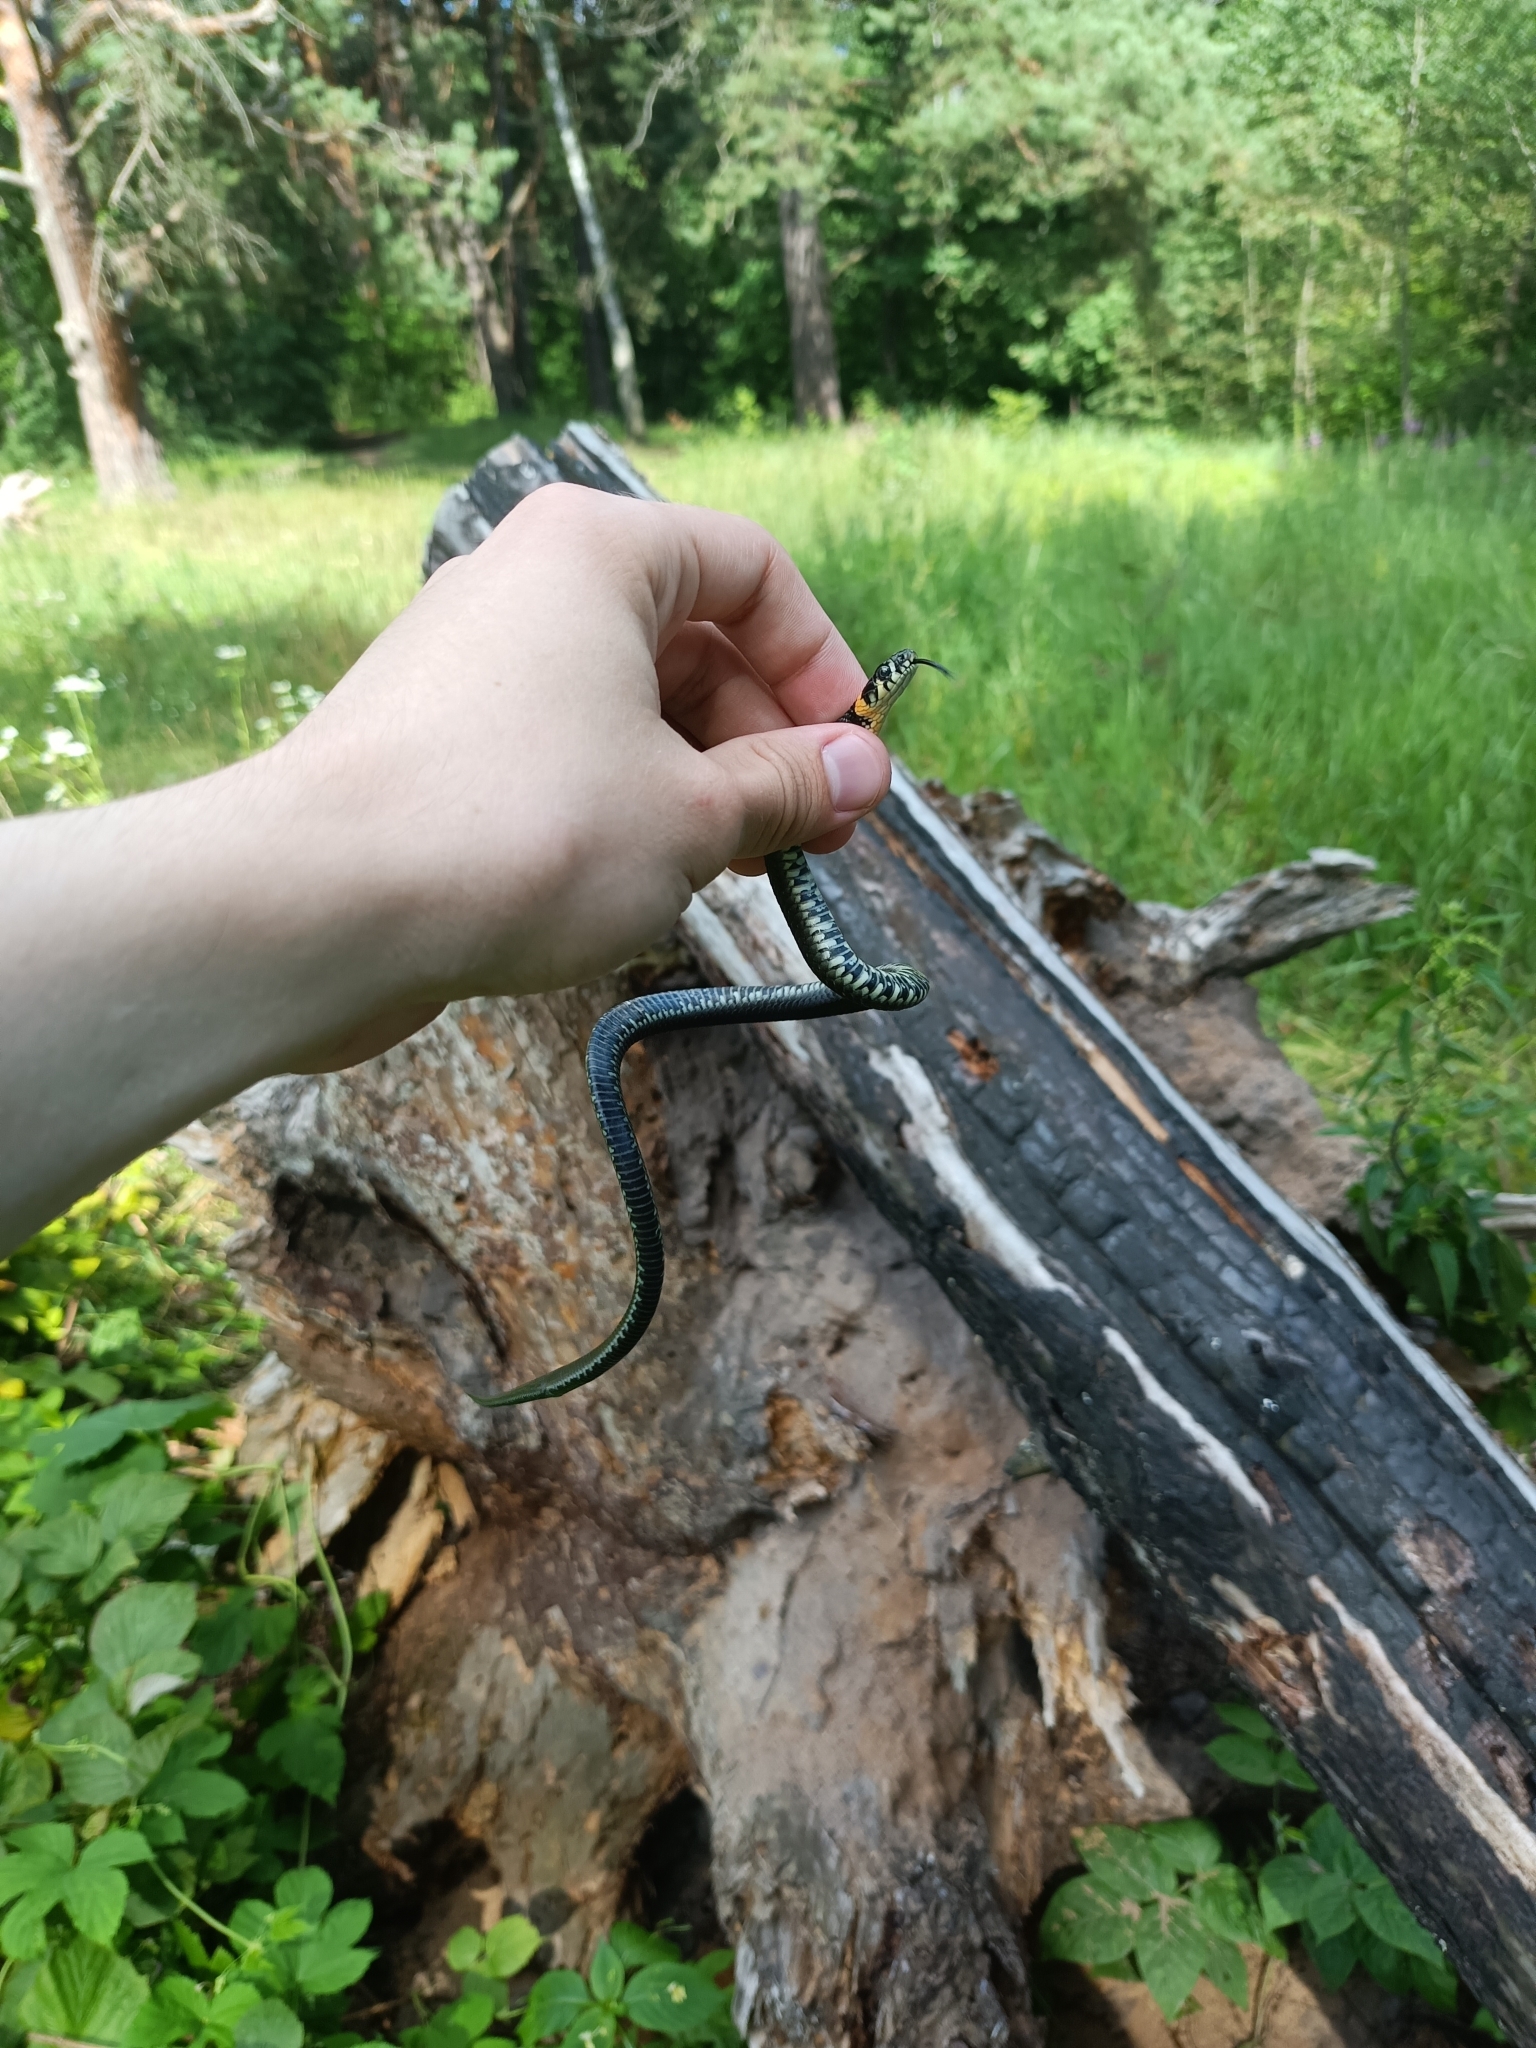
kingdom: Animalia
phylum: Chordata
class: Squamata
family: Colubridae
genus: Natrix
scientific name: Natrix natrix
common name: Grass snake
